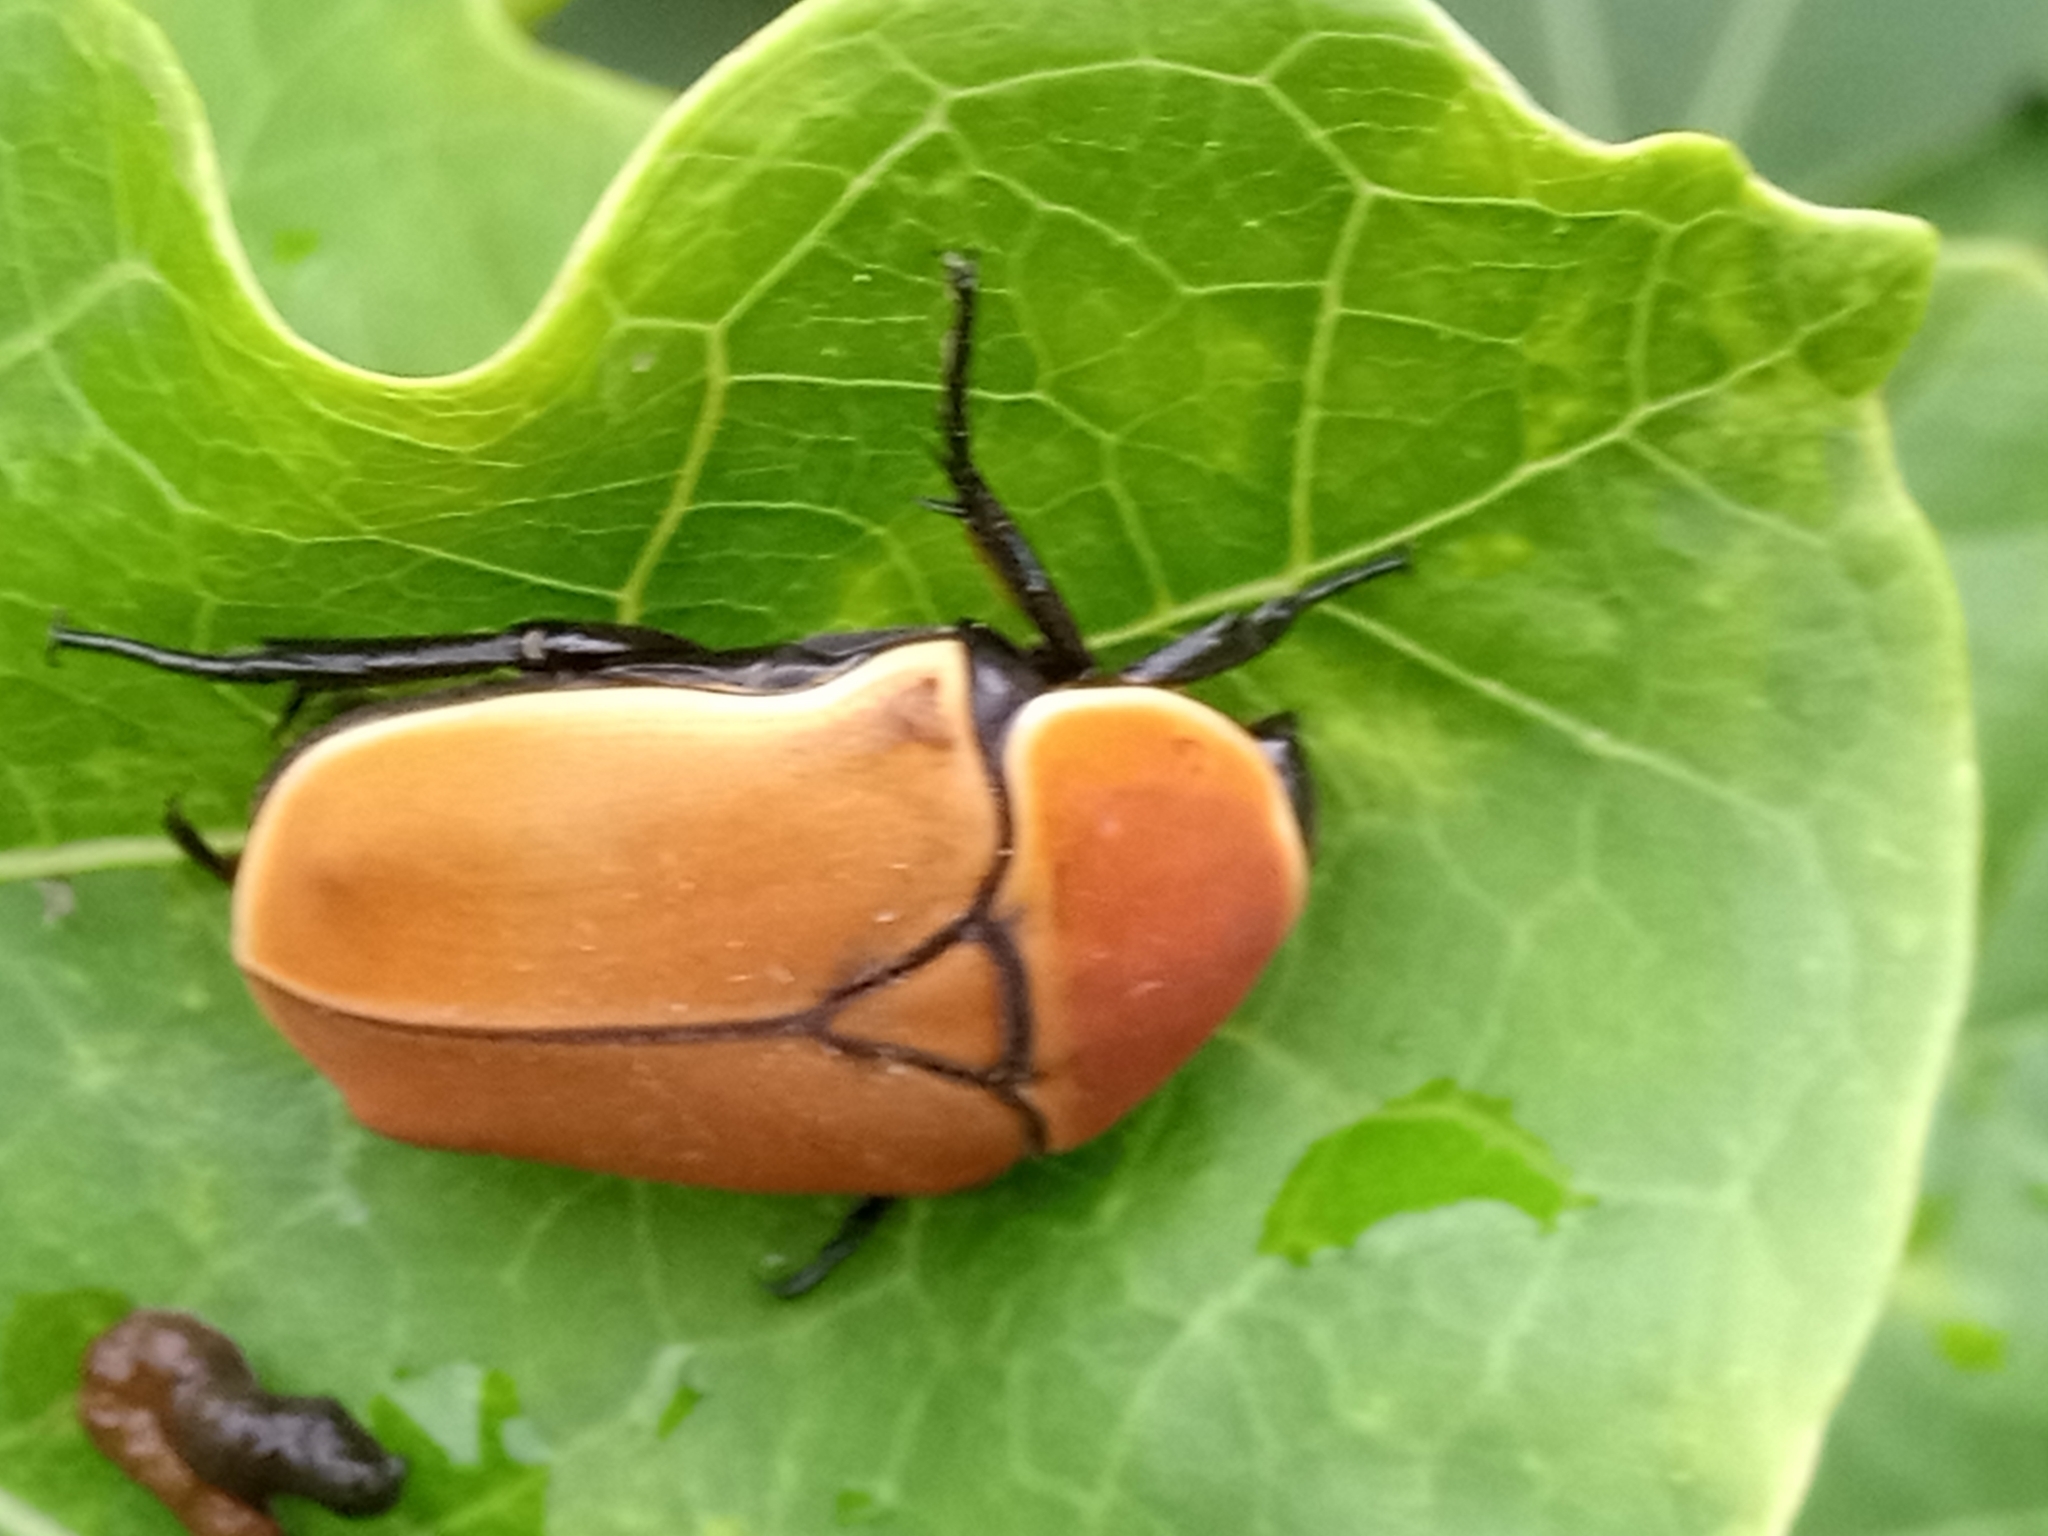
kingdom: Animalia
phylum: Arthropoda
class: Insecta
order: Coleoptera
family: Scarabaeidae
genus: Pachnoda
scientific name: Pachnoda marginata
